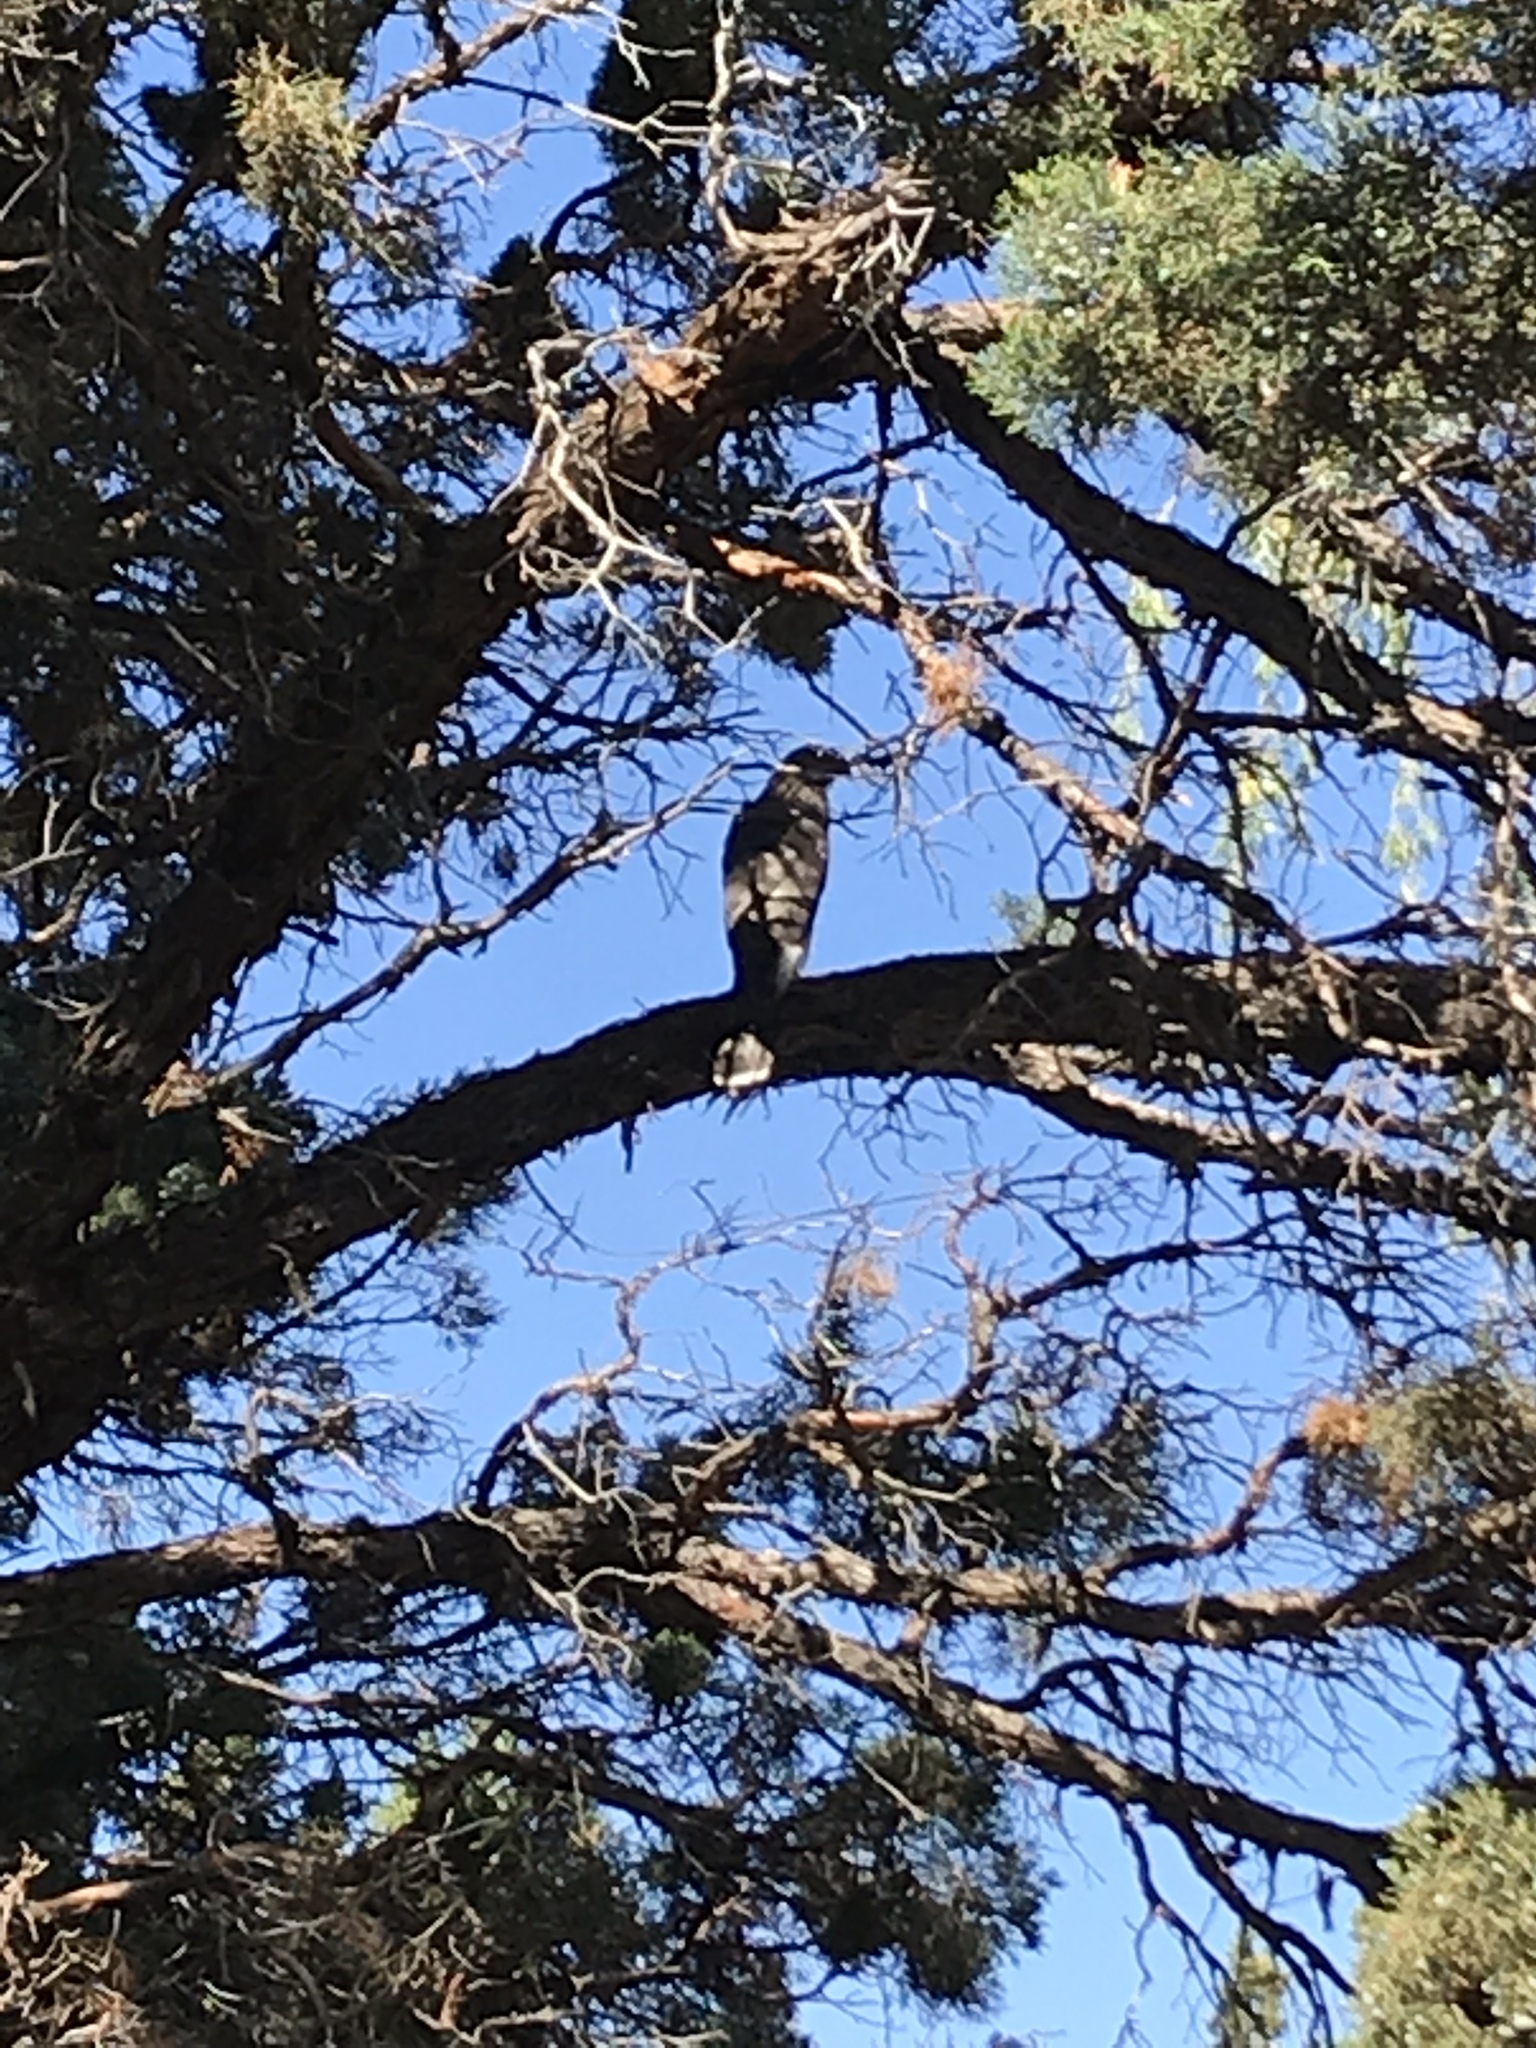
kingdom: Animalia
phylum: Chordata
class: Aves
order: Accipitriformes
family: Accipitridae
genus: Accipiter
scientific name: Accipiter cooperii
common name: Cooper's hawk
